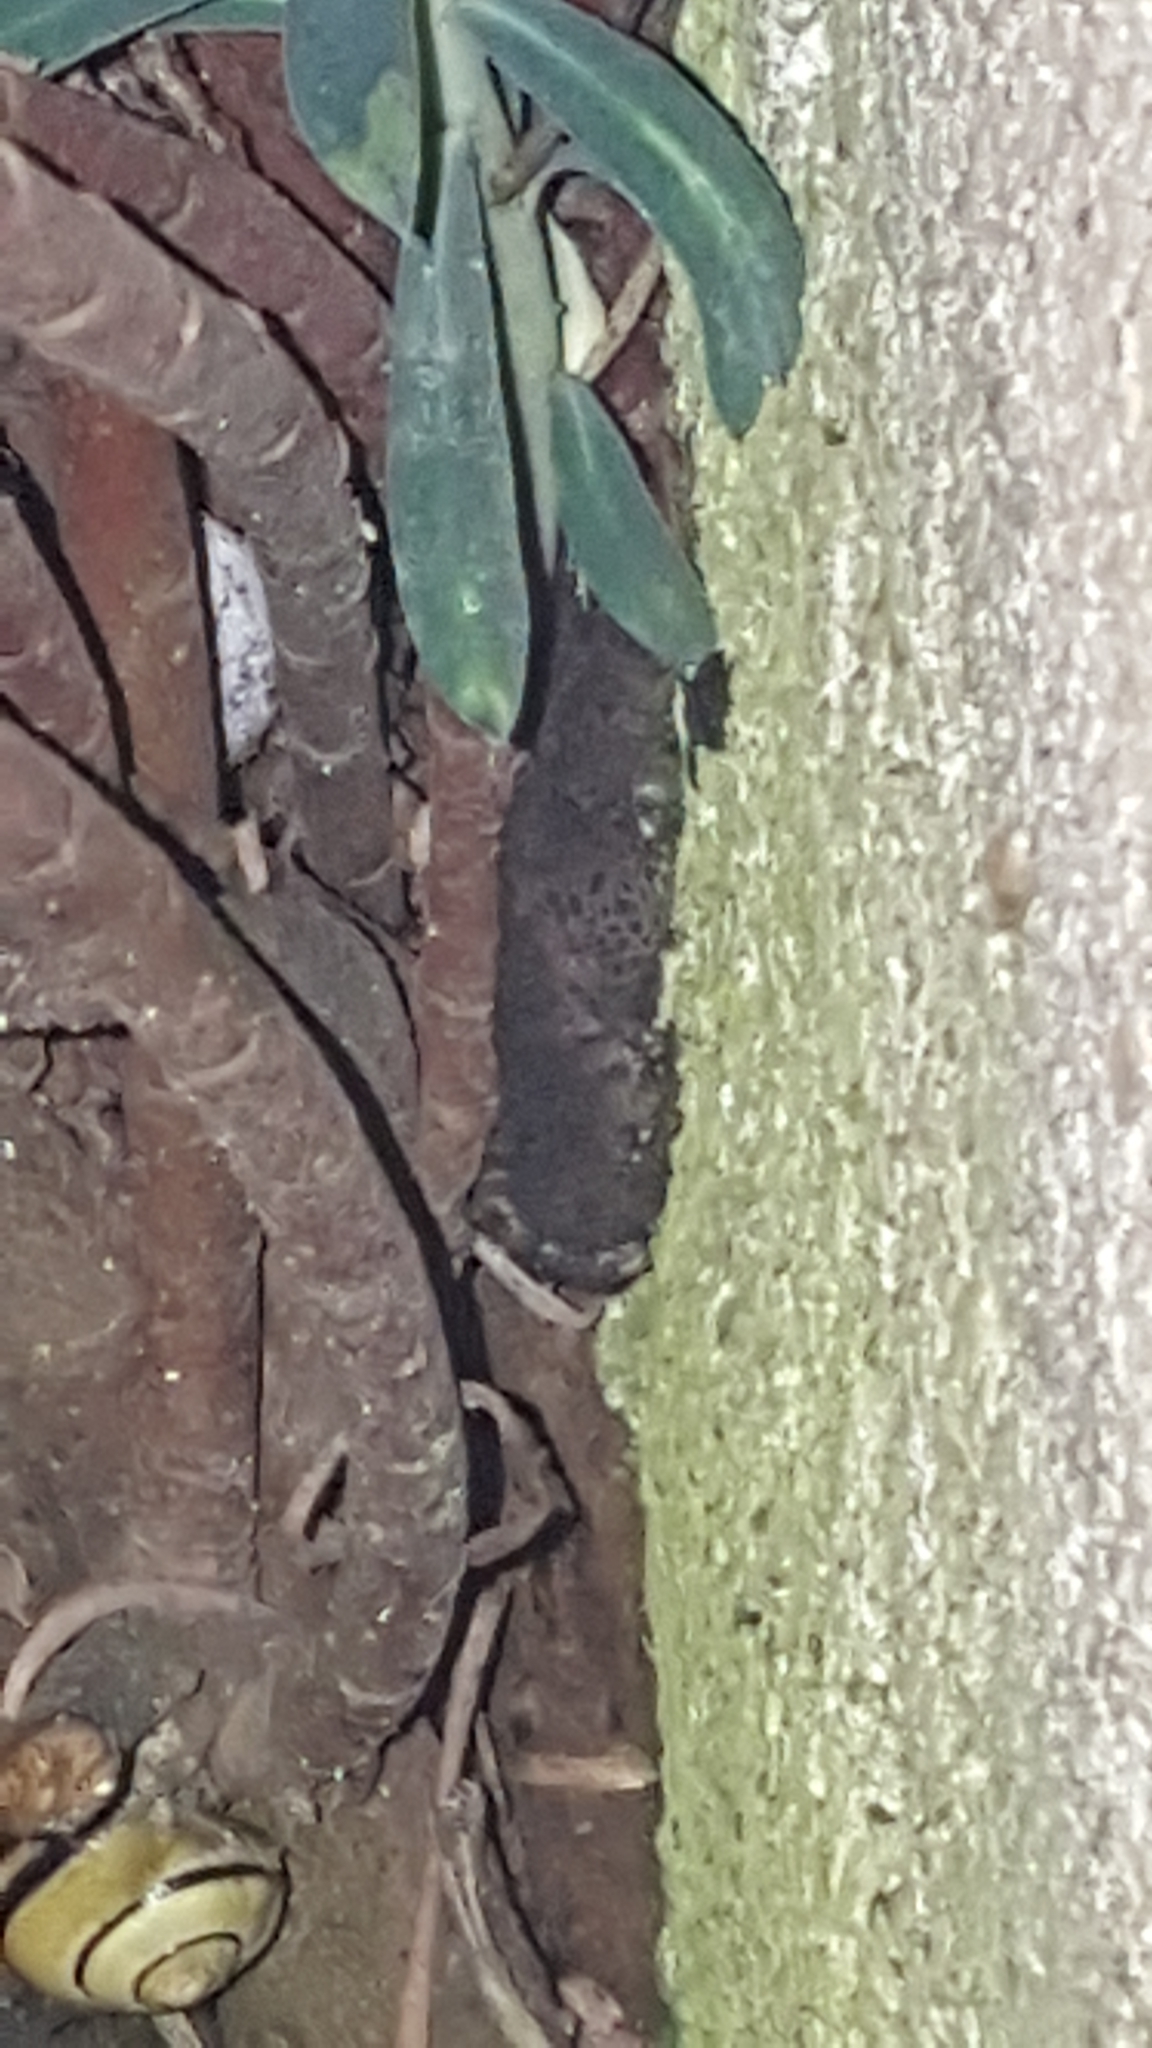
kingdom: Animalia
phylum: Chordata
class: Amphibia
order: Anura
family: Bufonidae
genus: Bufo
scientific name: Bufo bufo
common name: Common toad
